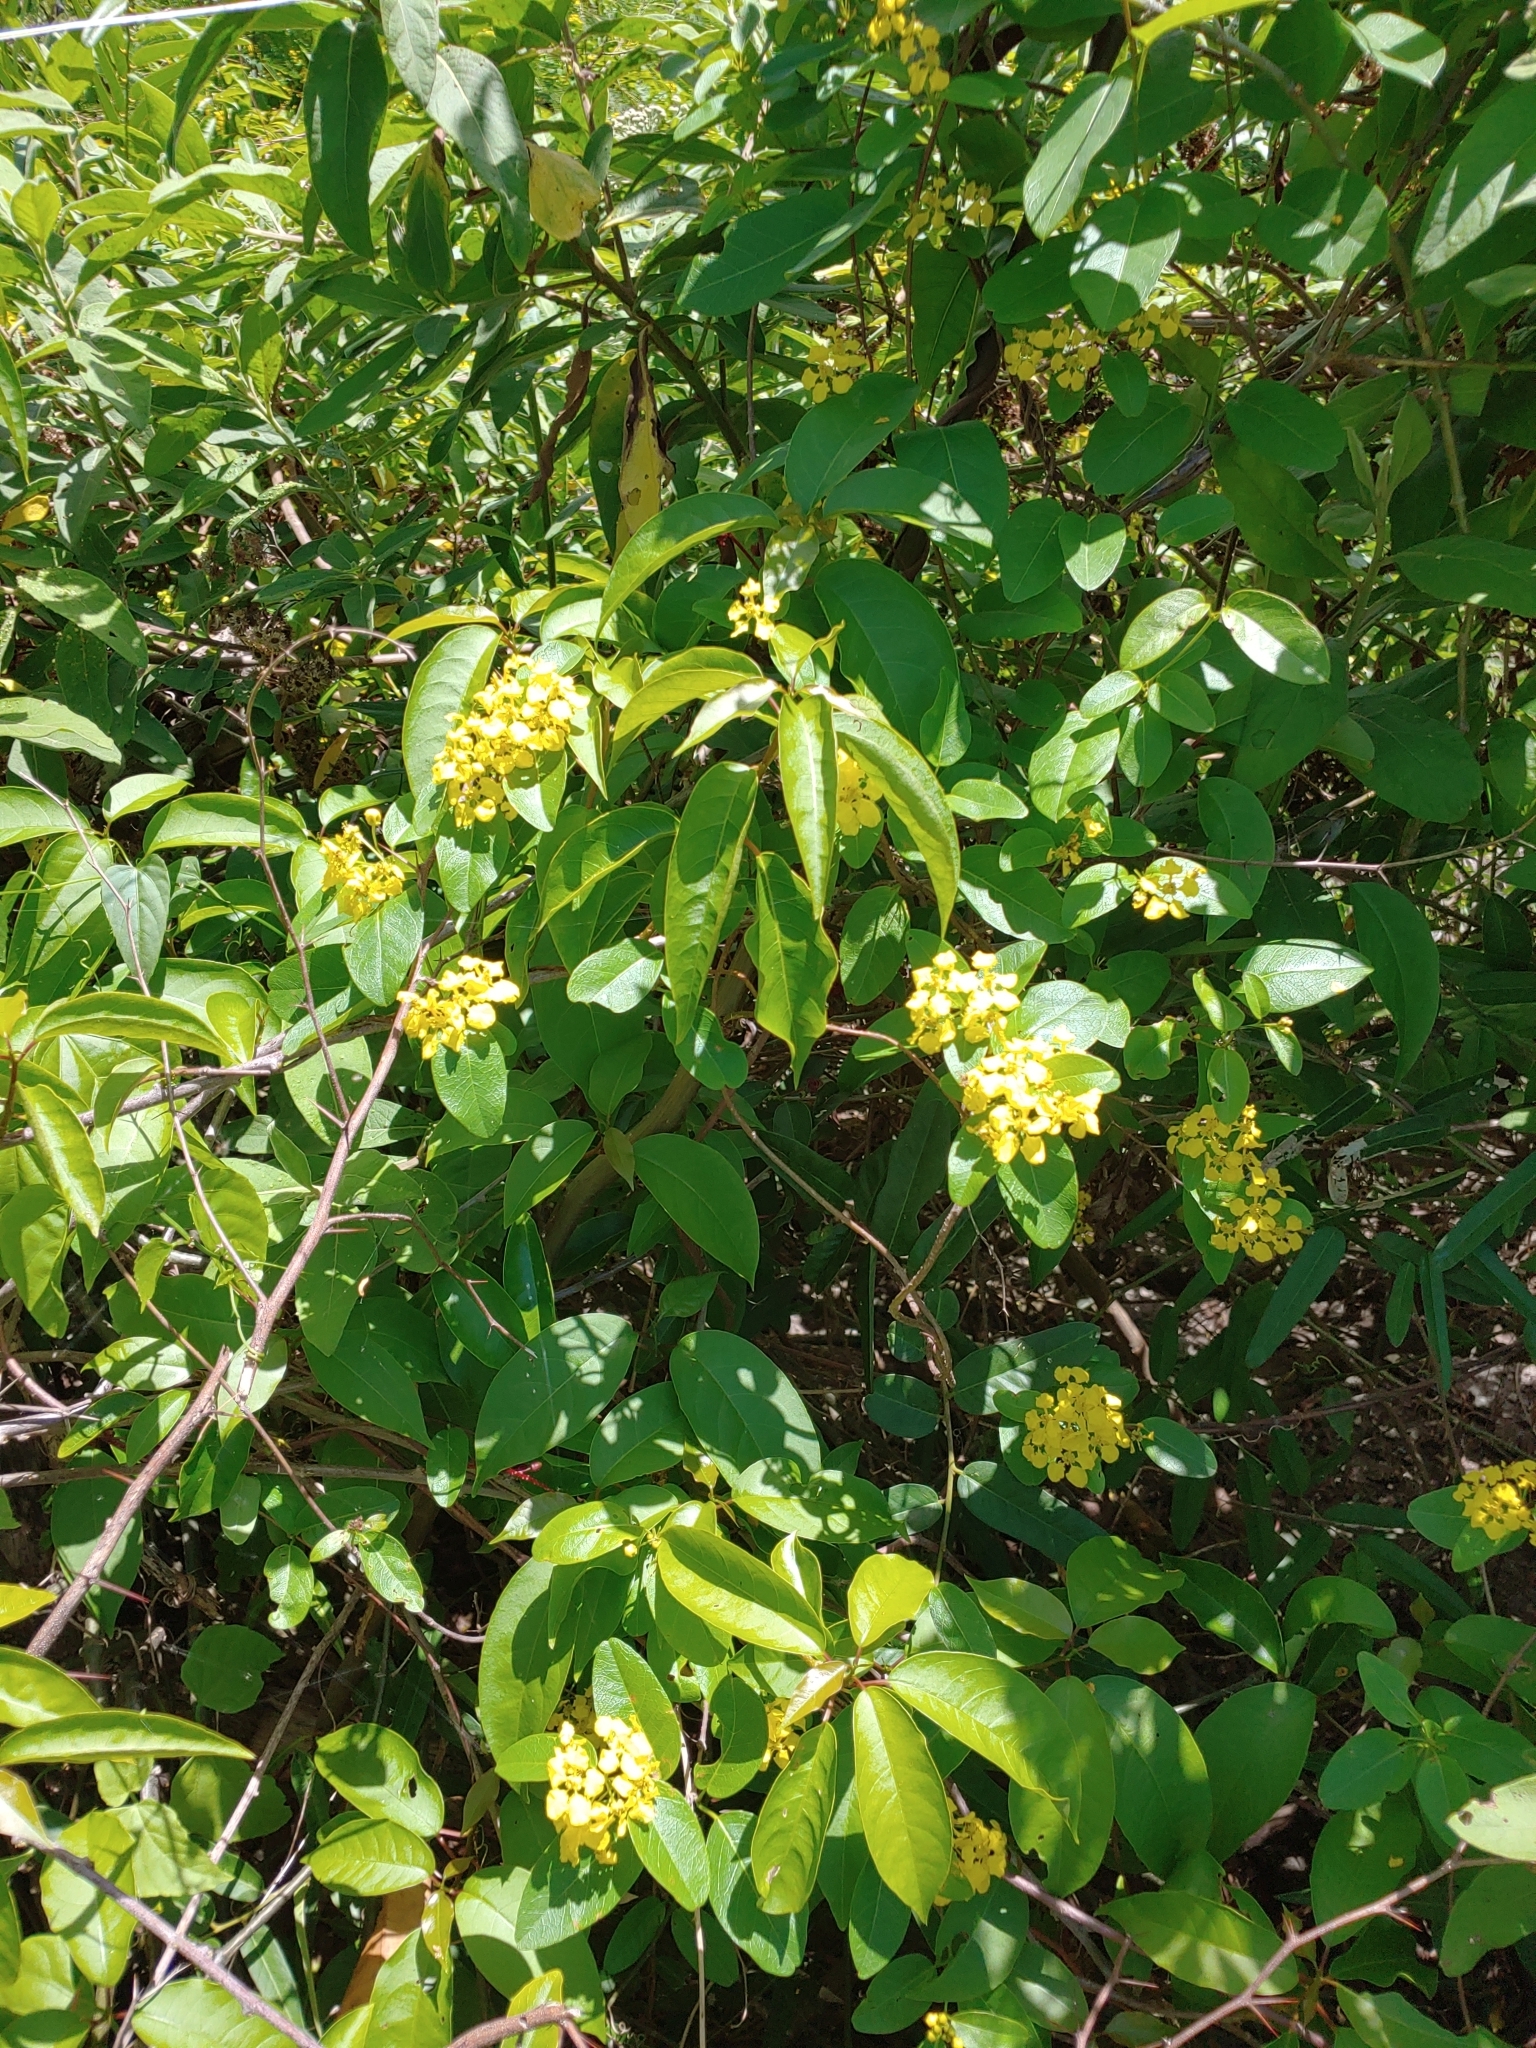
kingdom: Plantae
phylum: Tracheophyta
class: Magnoliopsida
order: Malpighiales
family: Malpighiaceae
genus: Stigmaphyllon
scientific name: Stigmaphyllon emarginatum
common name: Monarch amazonvine
